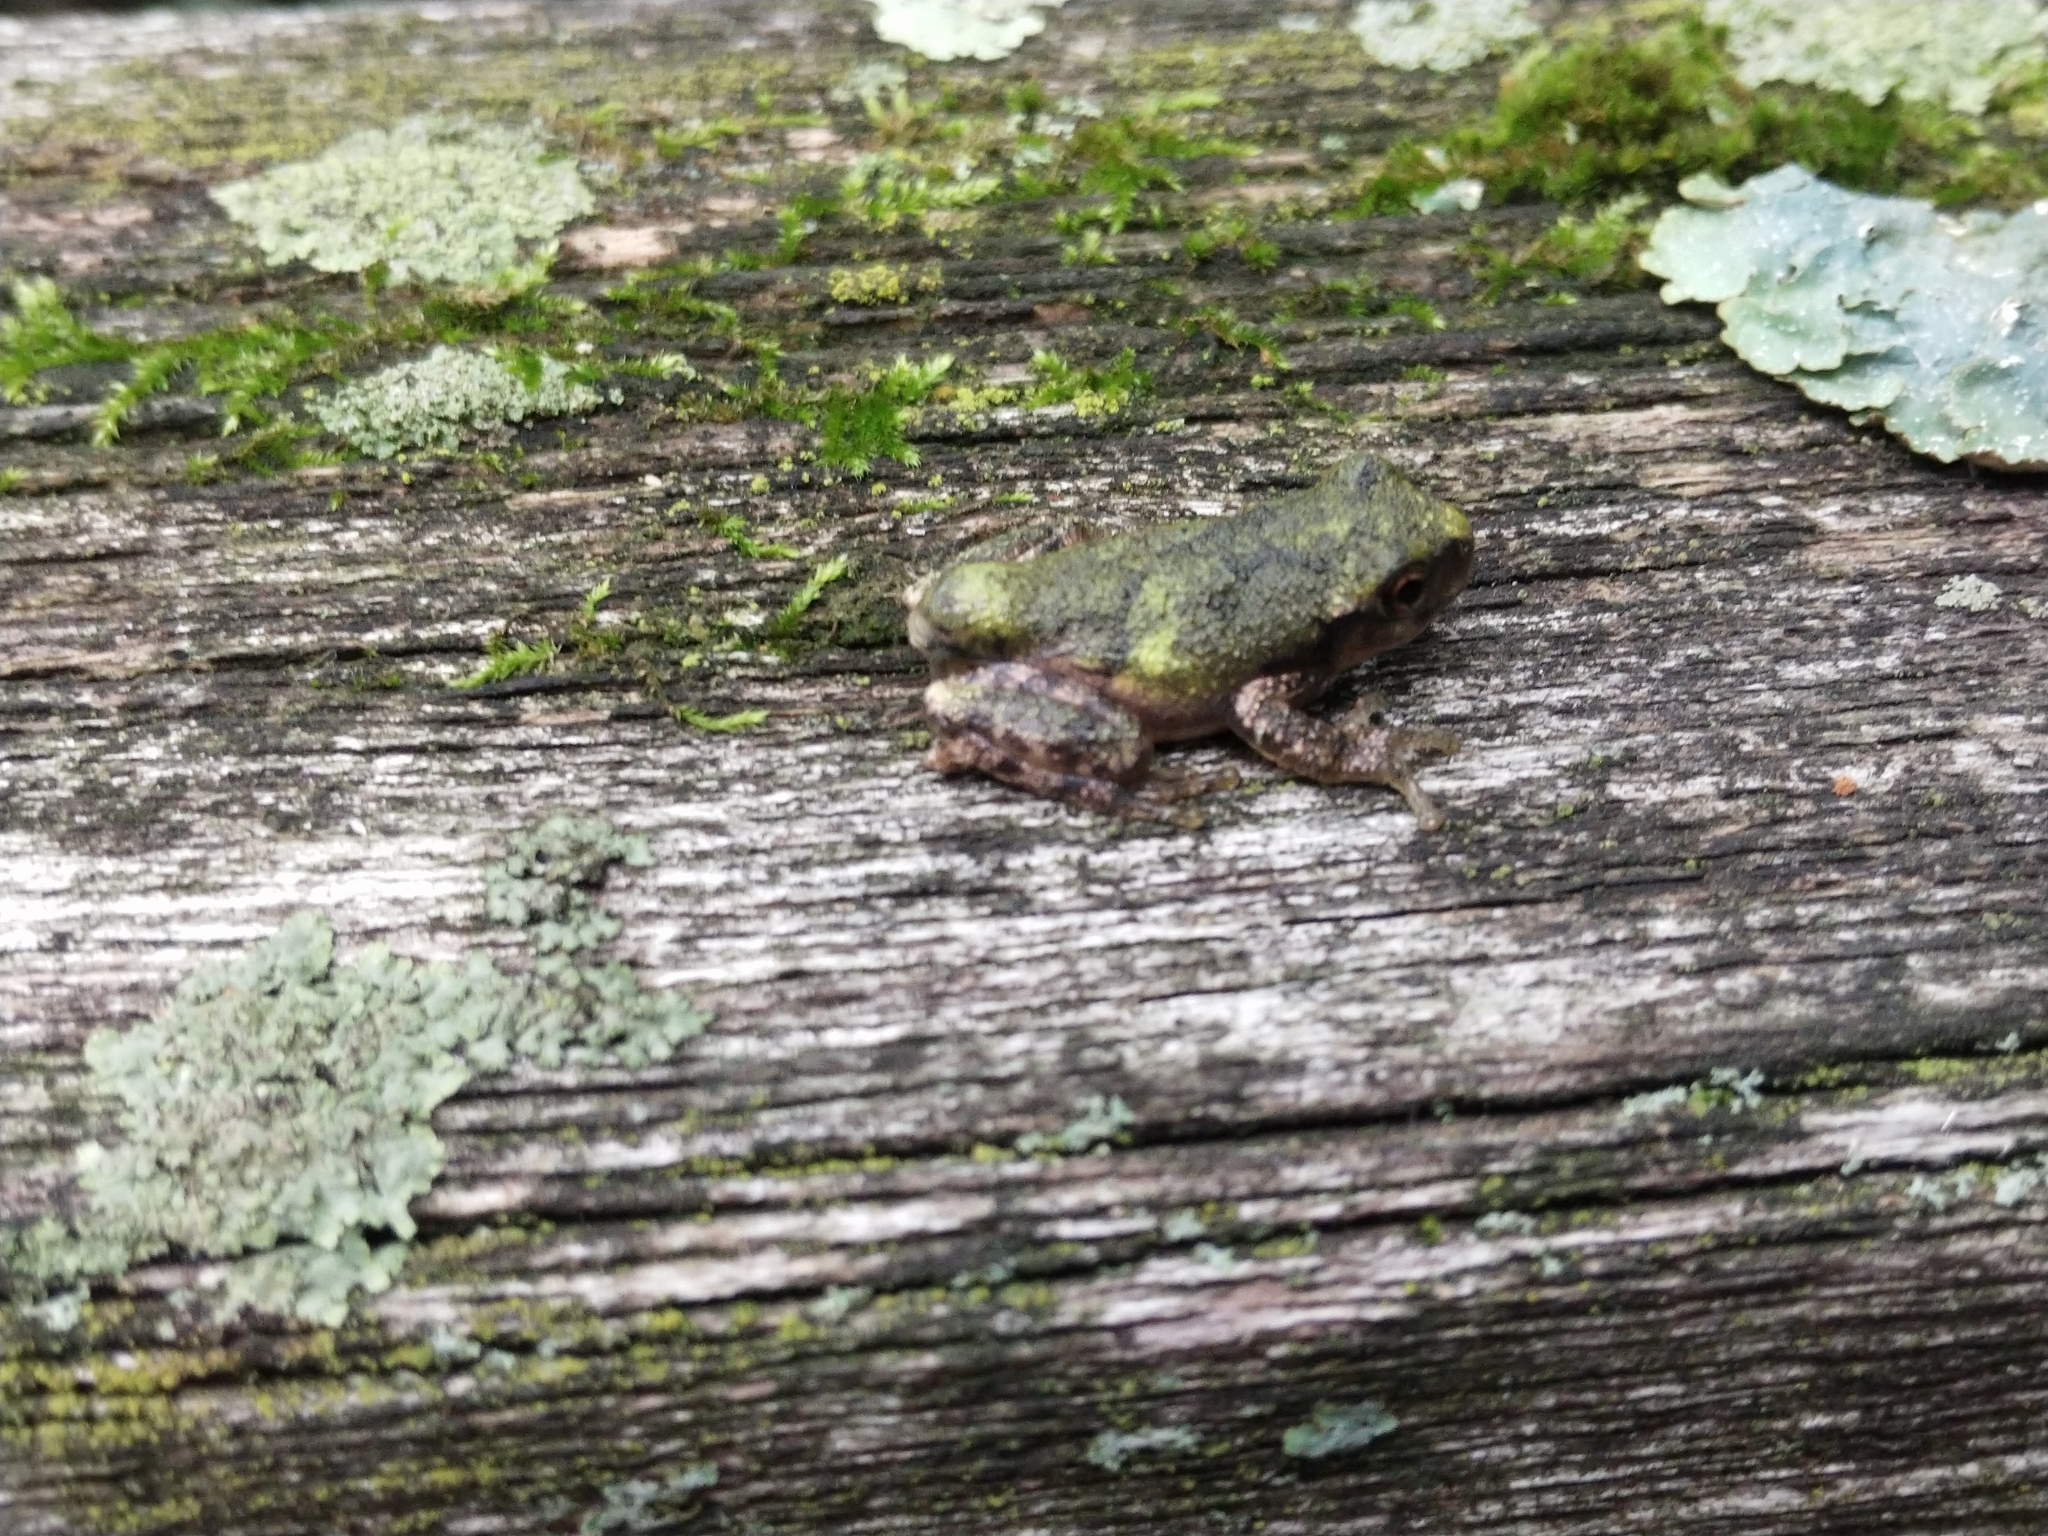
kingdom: Animalia
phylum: Chordata
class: Amphibia
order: Anura
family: Hylidae
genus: Pseudacris
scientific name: Pseudacris crucifer
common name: Spring peeper
